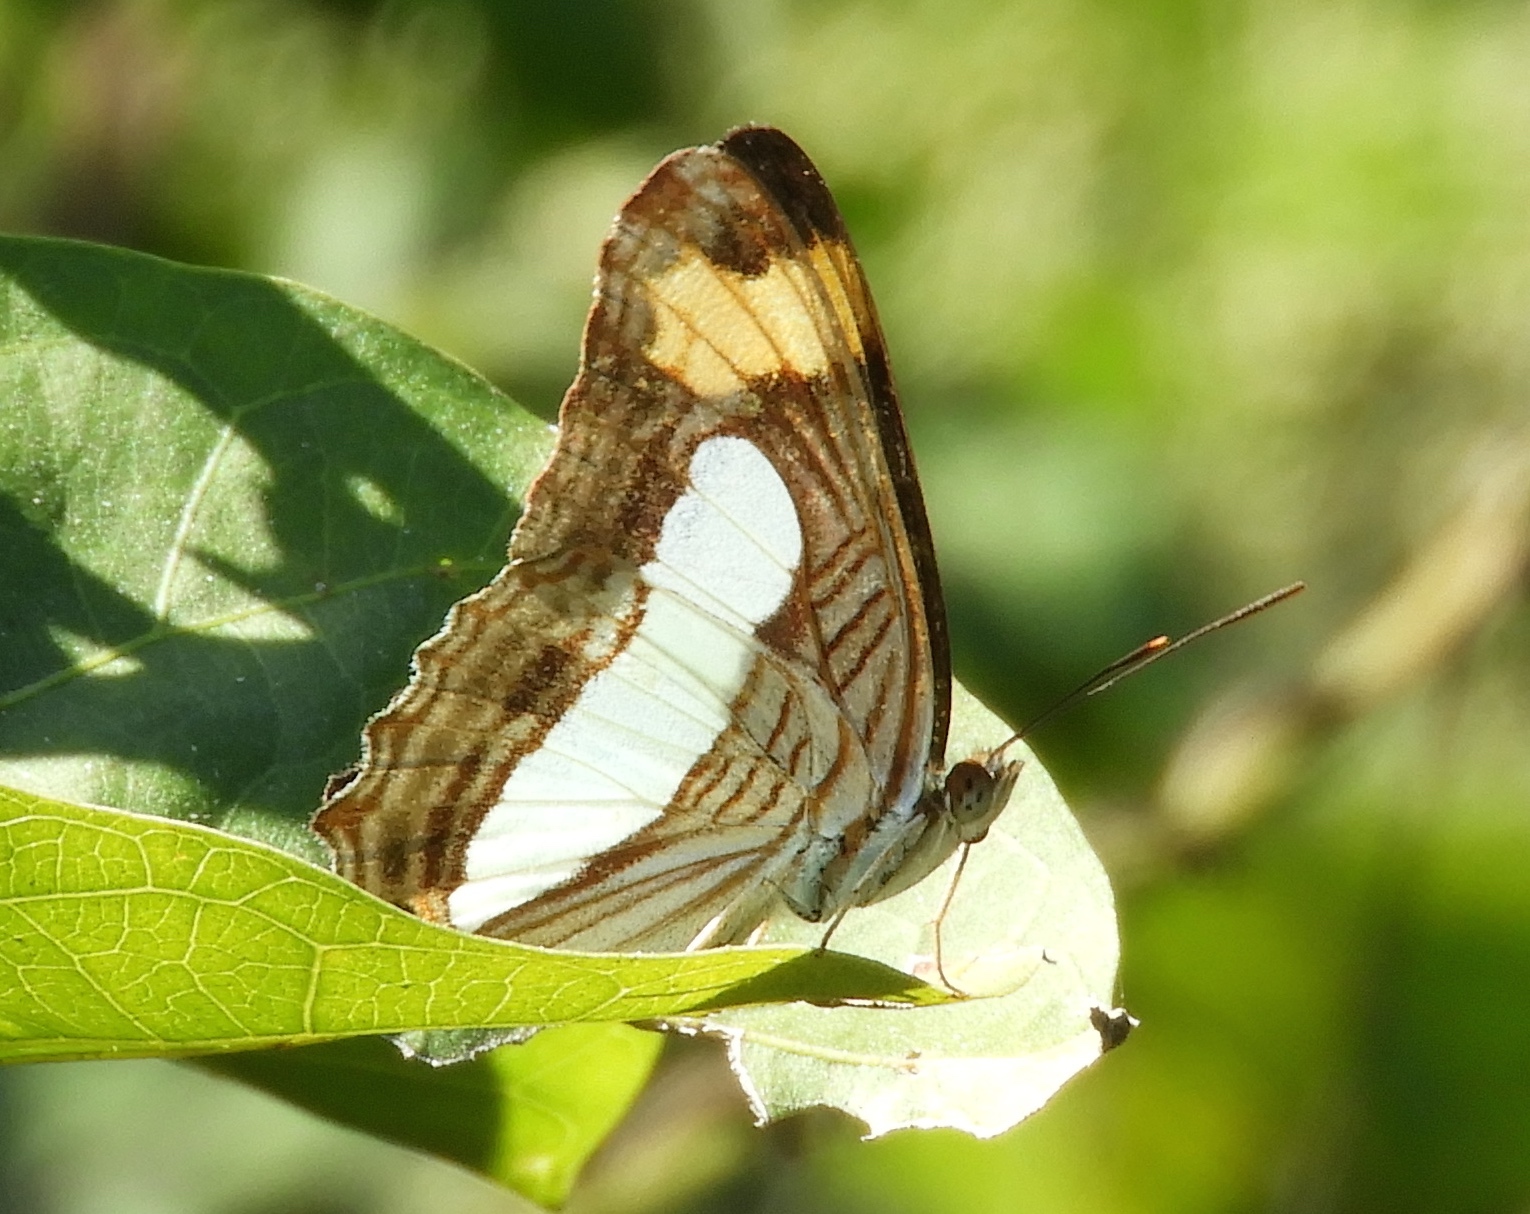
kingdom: Animalia
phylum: Arthropoda
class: Insecta
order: Lepidoptera
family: Nymphalidae
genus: Limenitis
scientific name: Limenitis iphiclus
